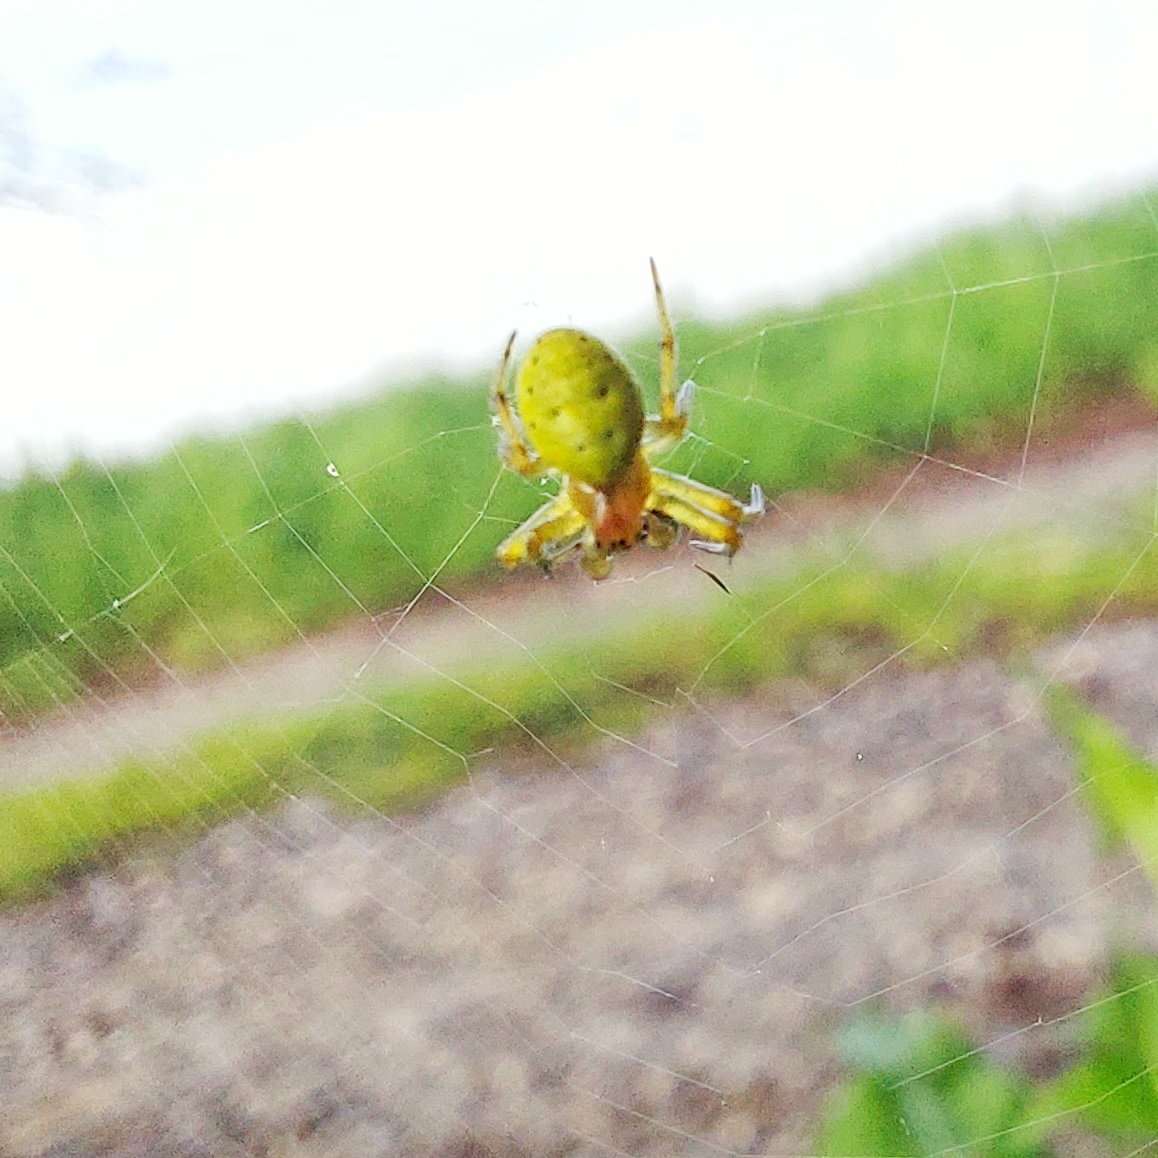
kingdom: Animalia
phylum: Arthropoda
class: Arachnida
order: Araneae
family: Araneidae
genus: Araniella
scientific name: Araniella
